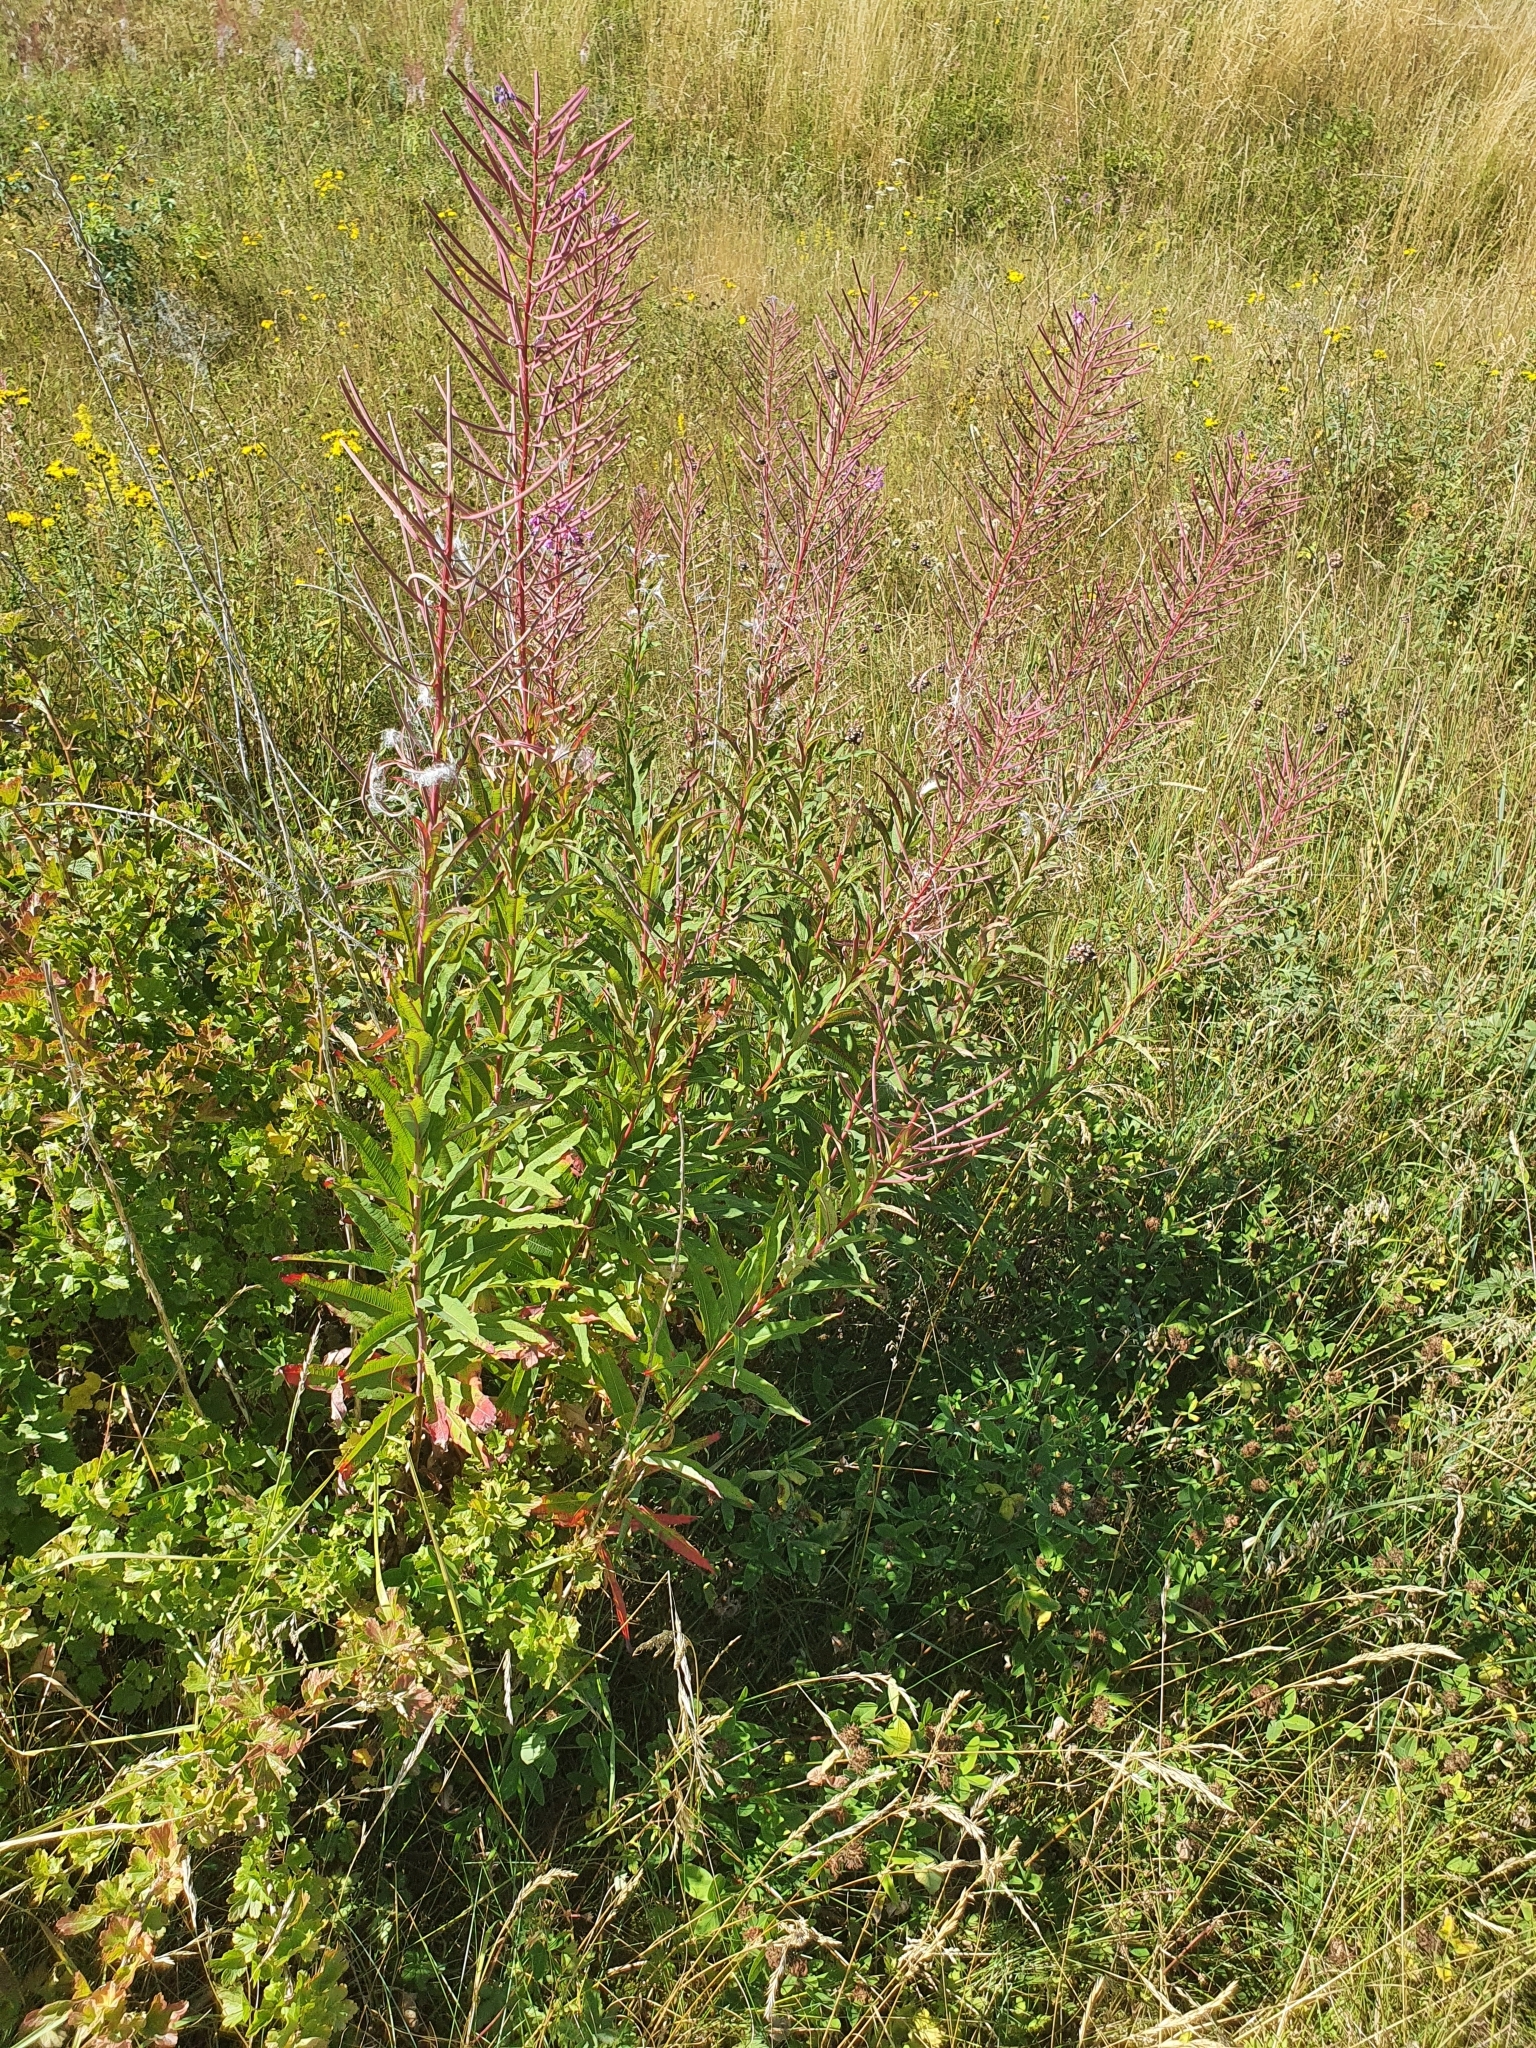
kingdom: Plantae
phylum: Tracheophyta
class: Magnoliopsida
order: Myrtales
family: Onagraceae
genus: Chamaenerion
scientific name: Chamaenerion angustifolium
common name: Fireweed
